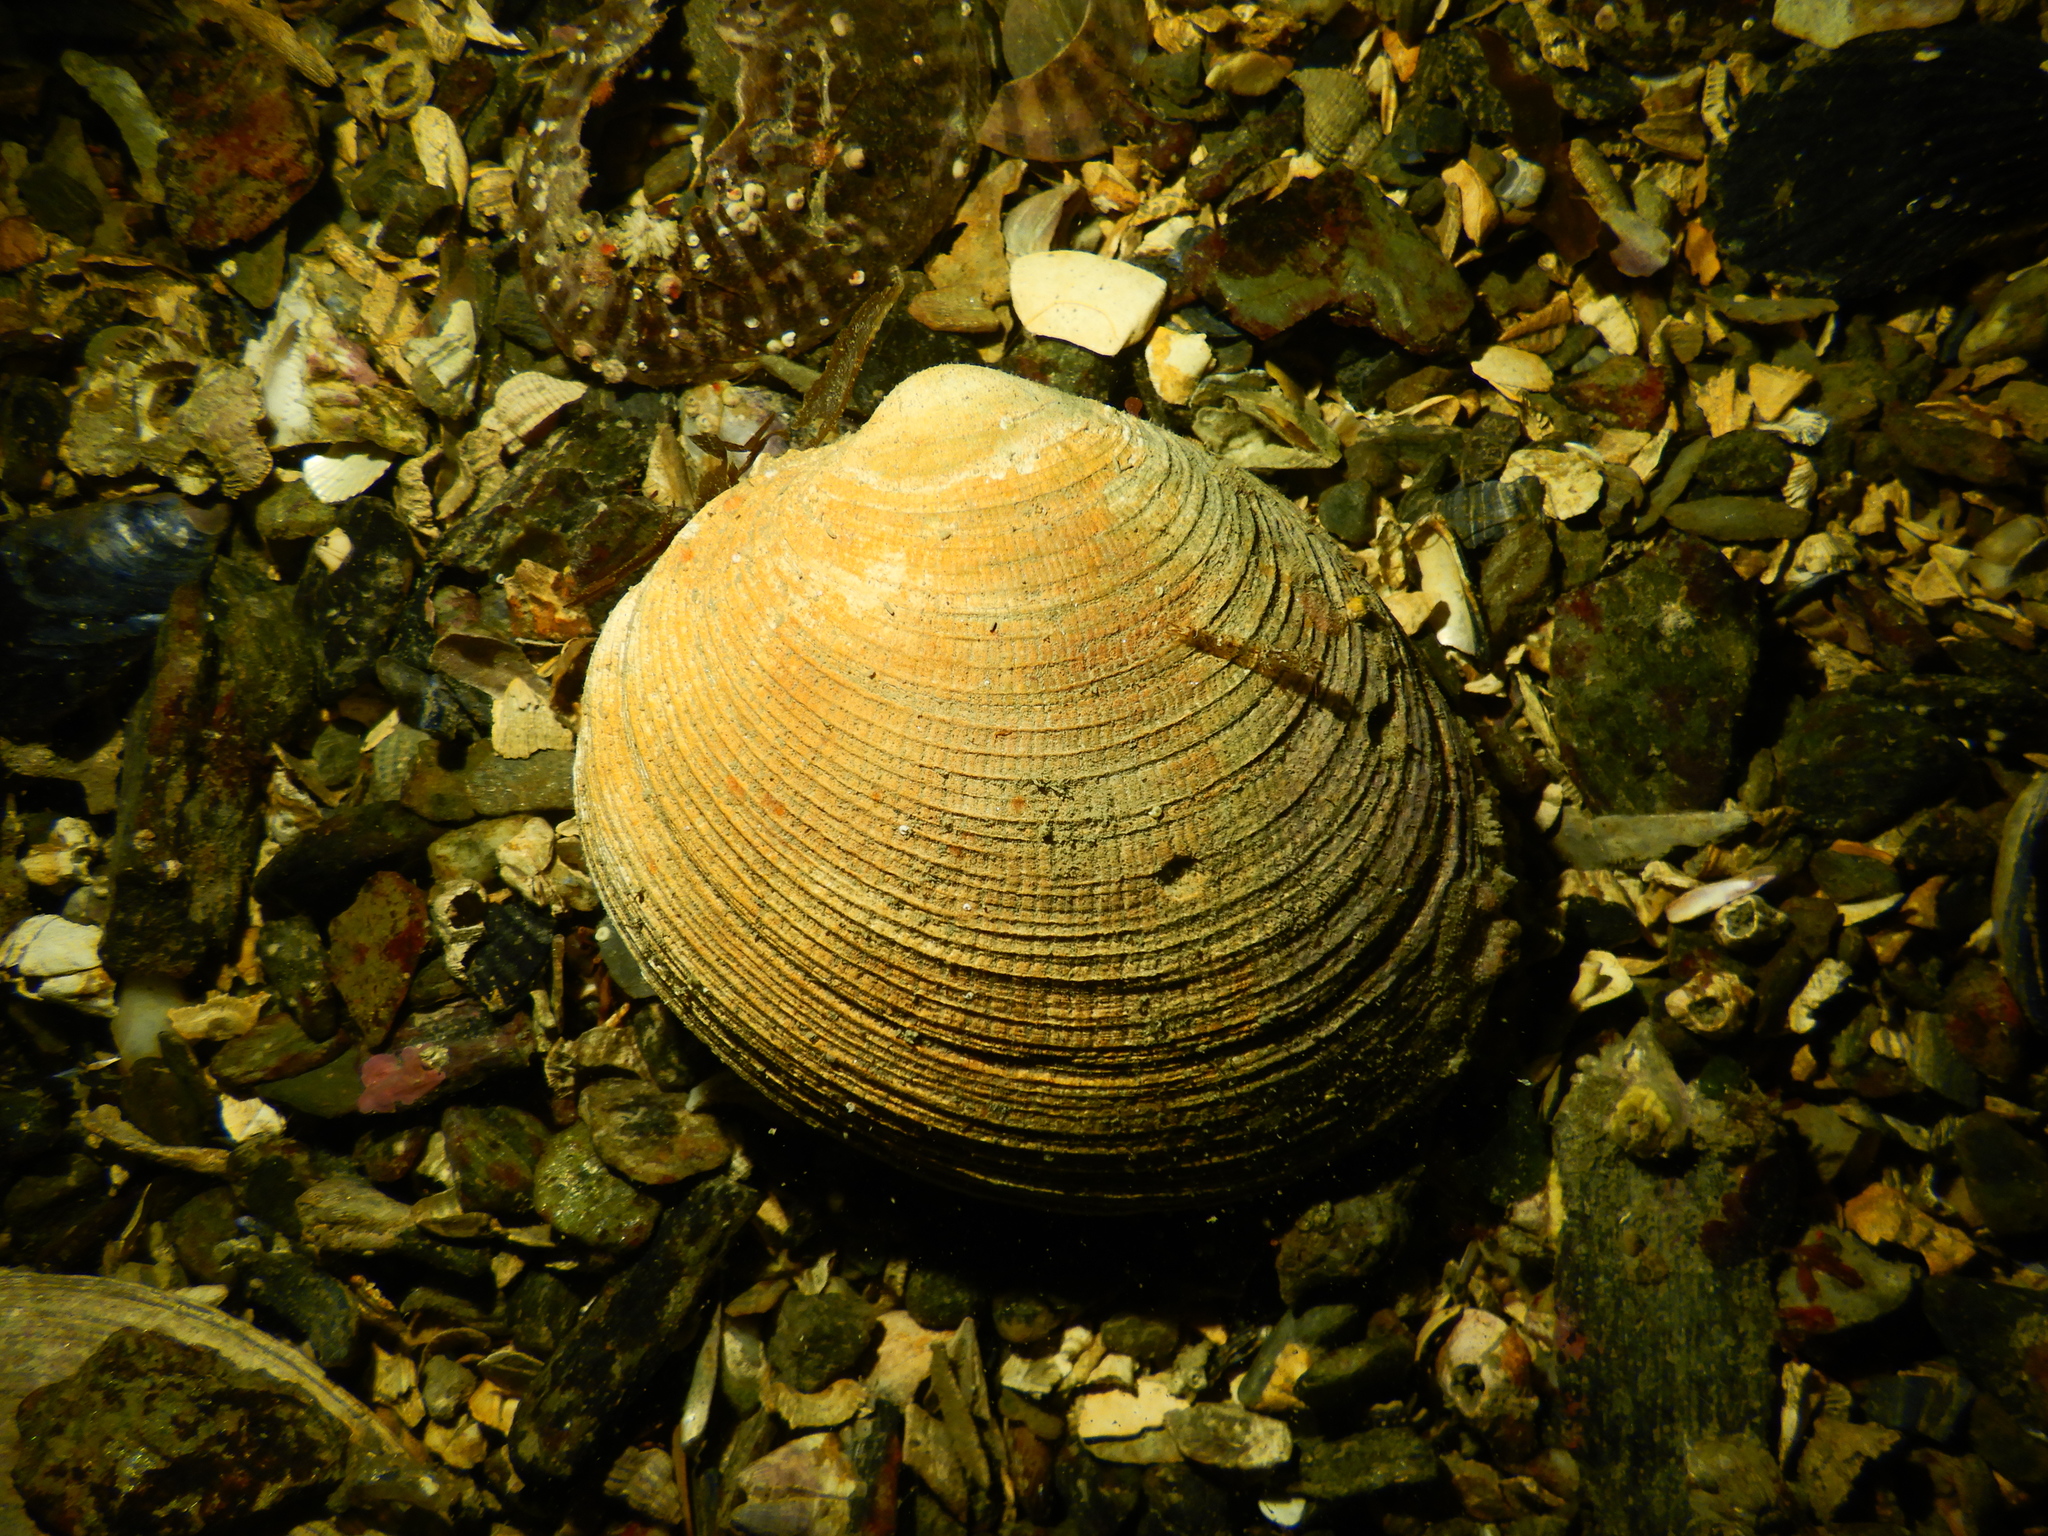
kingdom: Animalia
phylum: Mollusca
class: Bivalvia
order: Venerida
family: Veneridae
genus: Ameghinomya
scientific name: Ameghinomya antiqua
